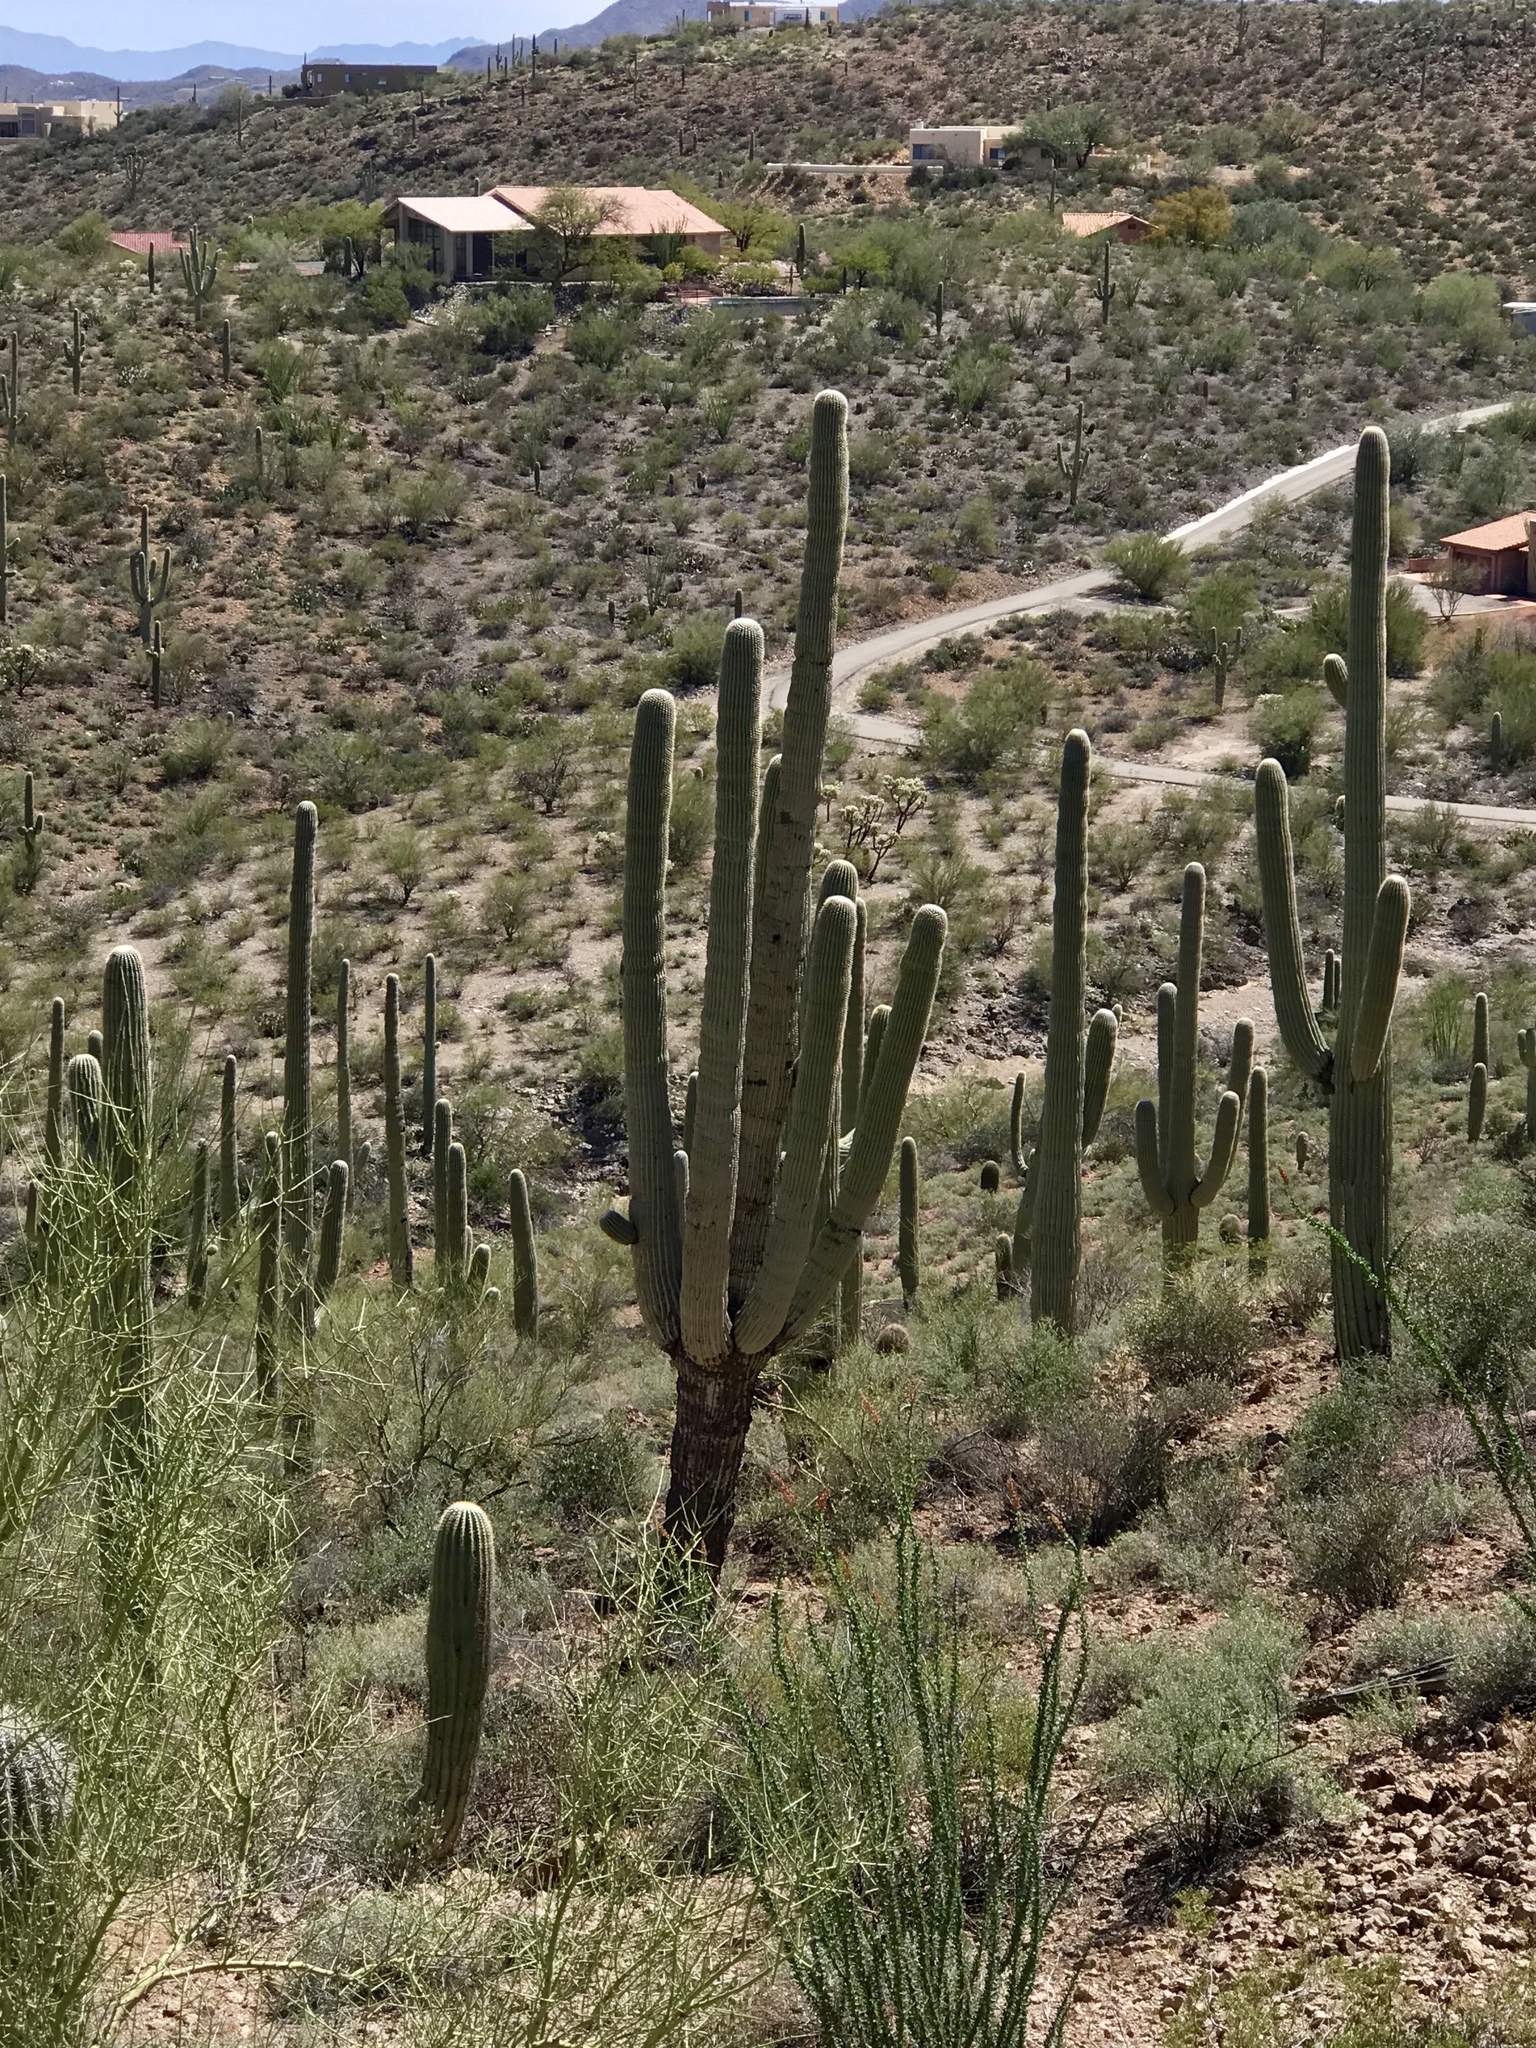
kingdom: Plantae
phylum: Tracheophyta
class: Magnoliopsida
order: Caryophyllales
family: Cactaceae
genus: Carnegiea
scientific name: Carnegiea gigantea
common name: Saguaro
